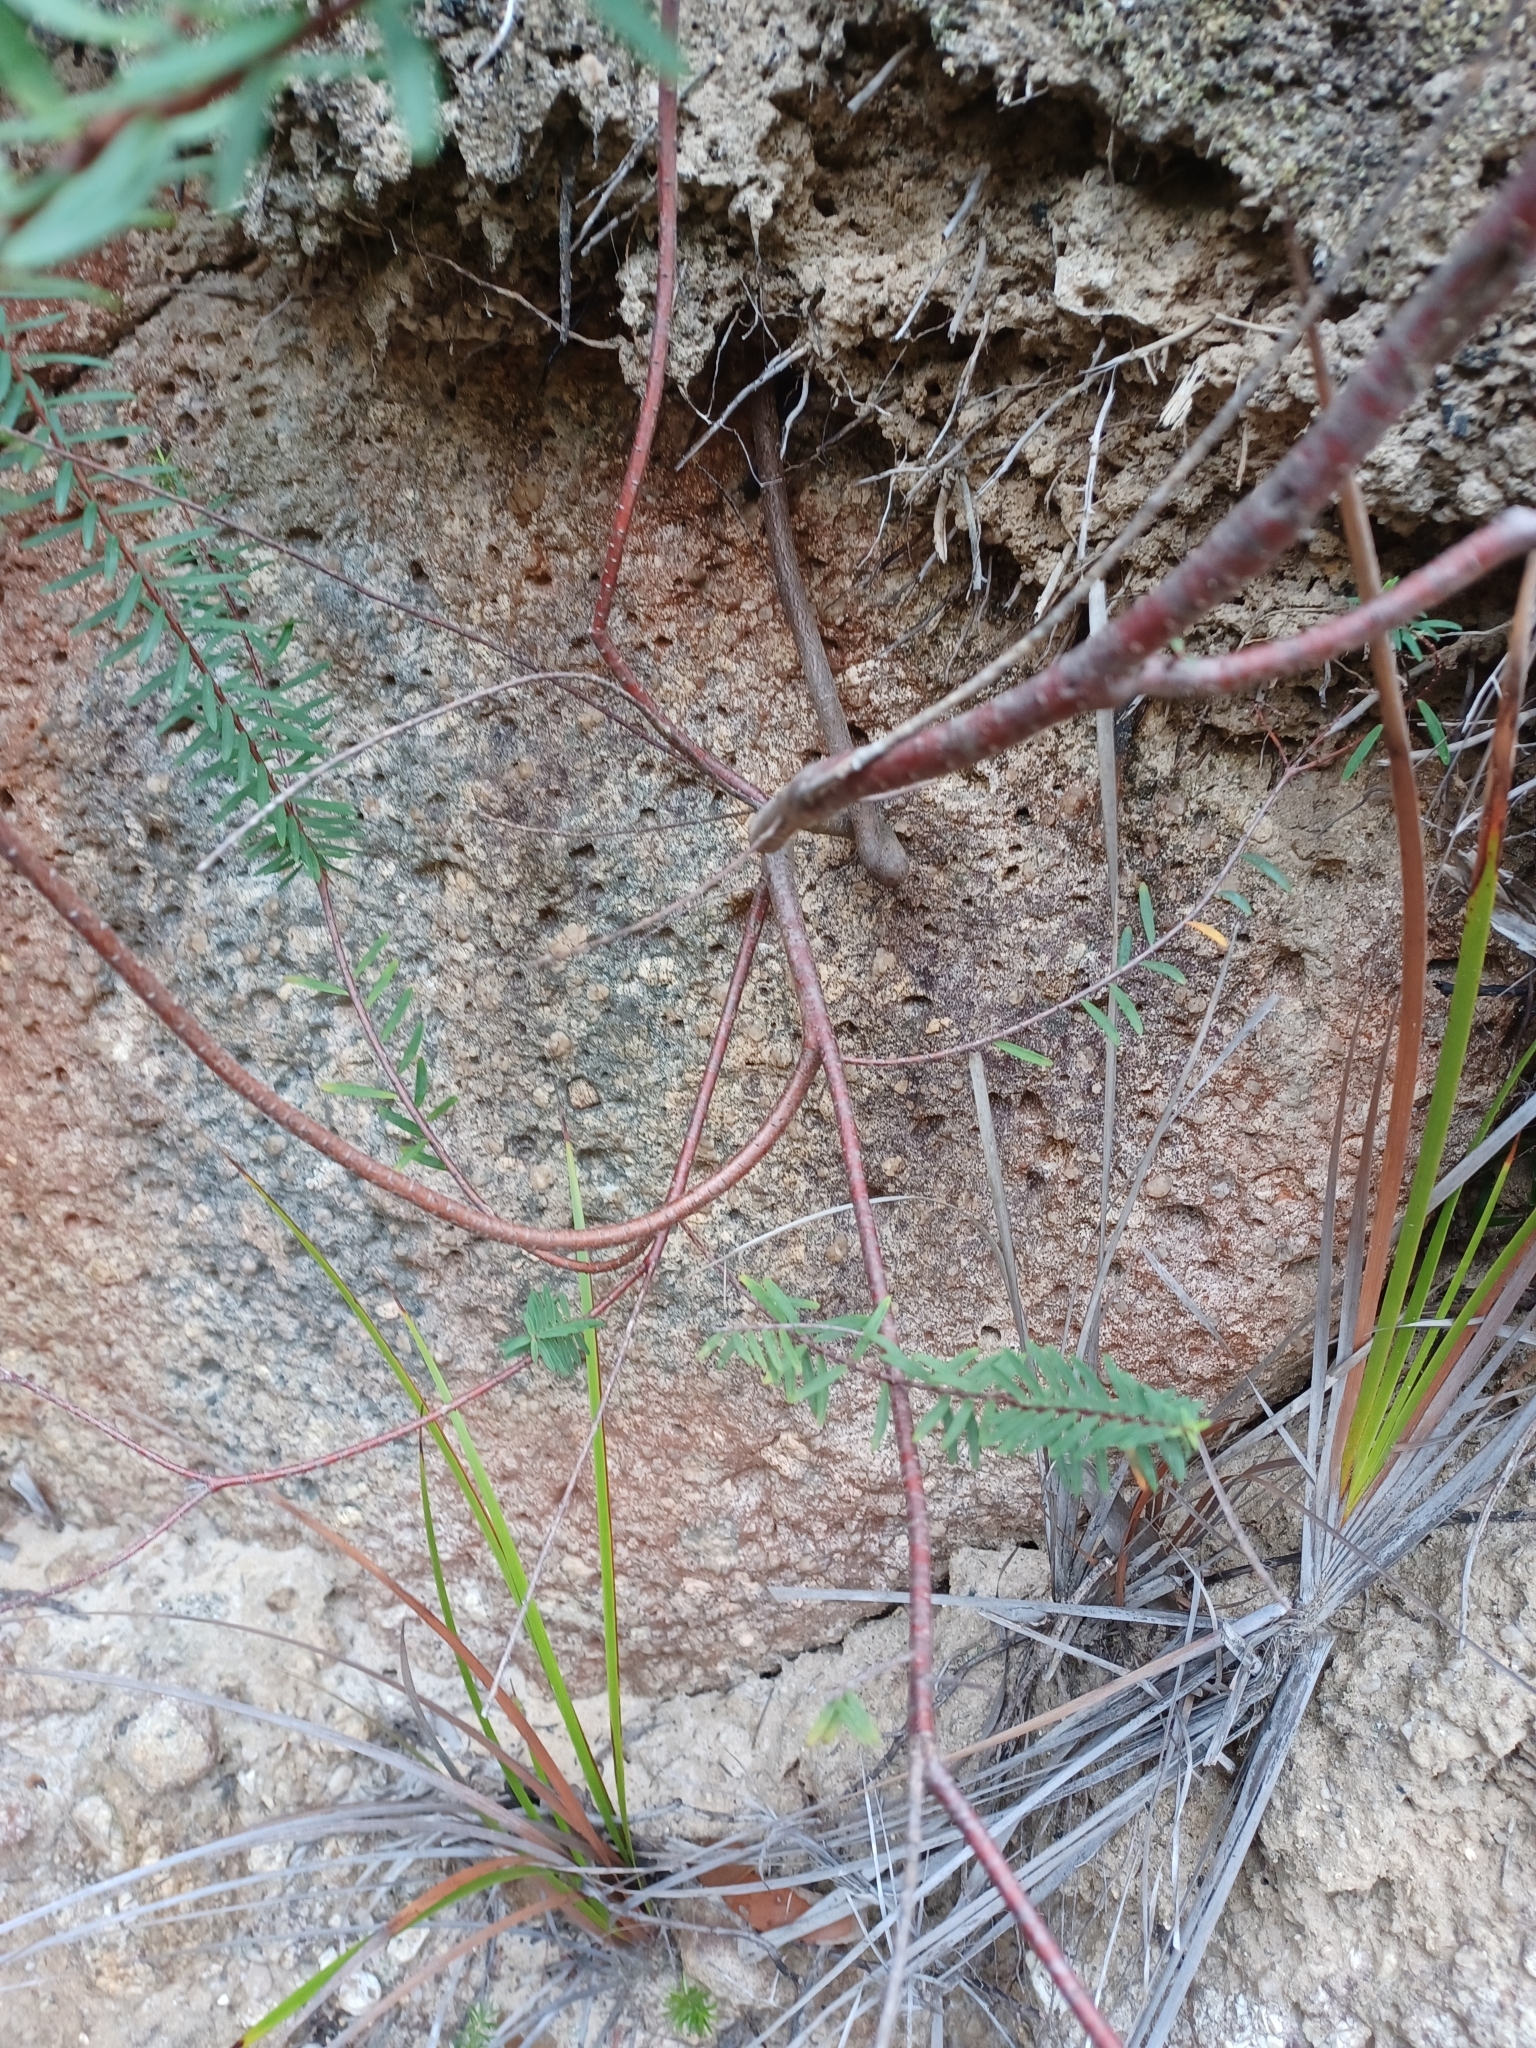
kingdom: Plantae
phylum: Tracheophyta
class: Magnoliopsida
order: Malvales
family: Thymelaeaceae
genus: Pimelea
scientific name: Pimelea axiflora
